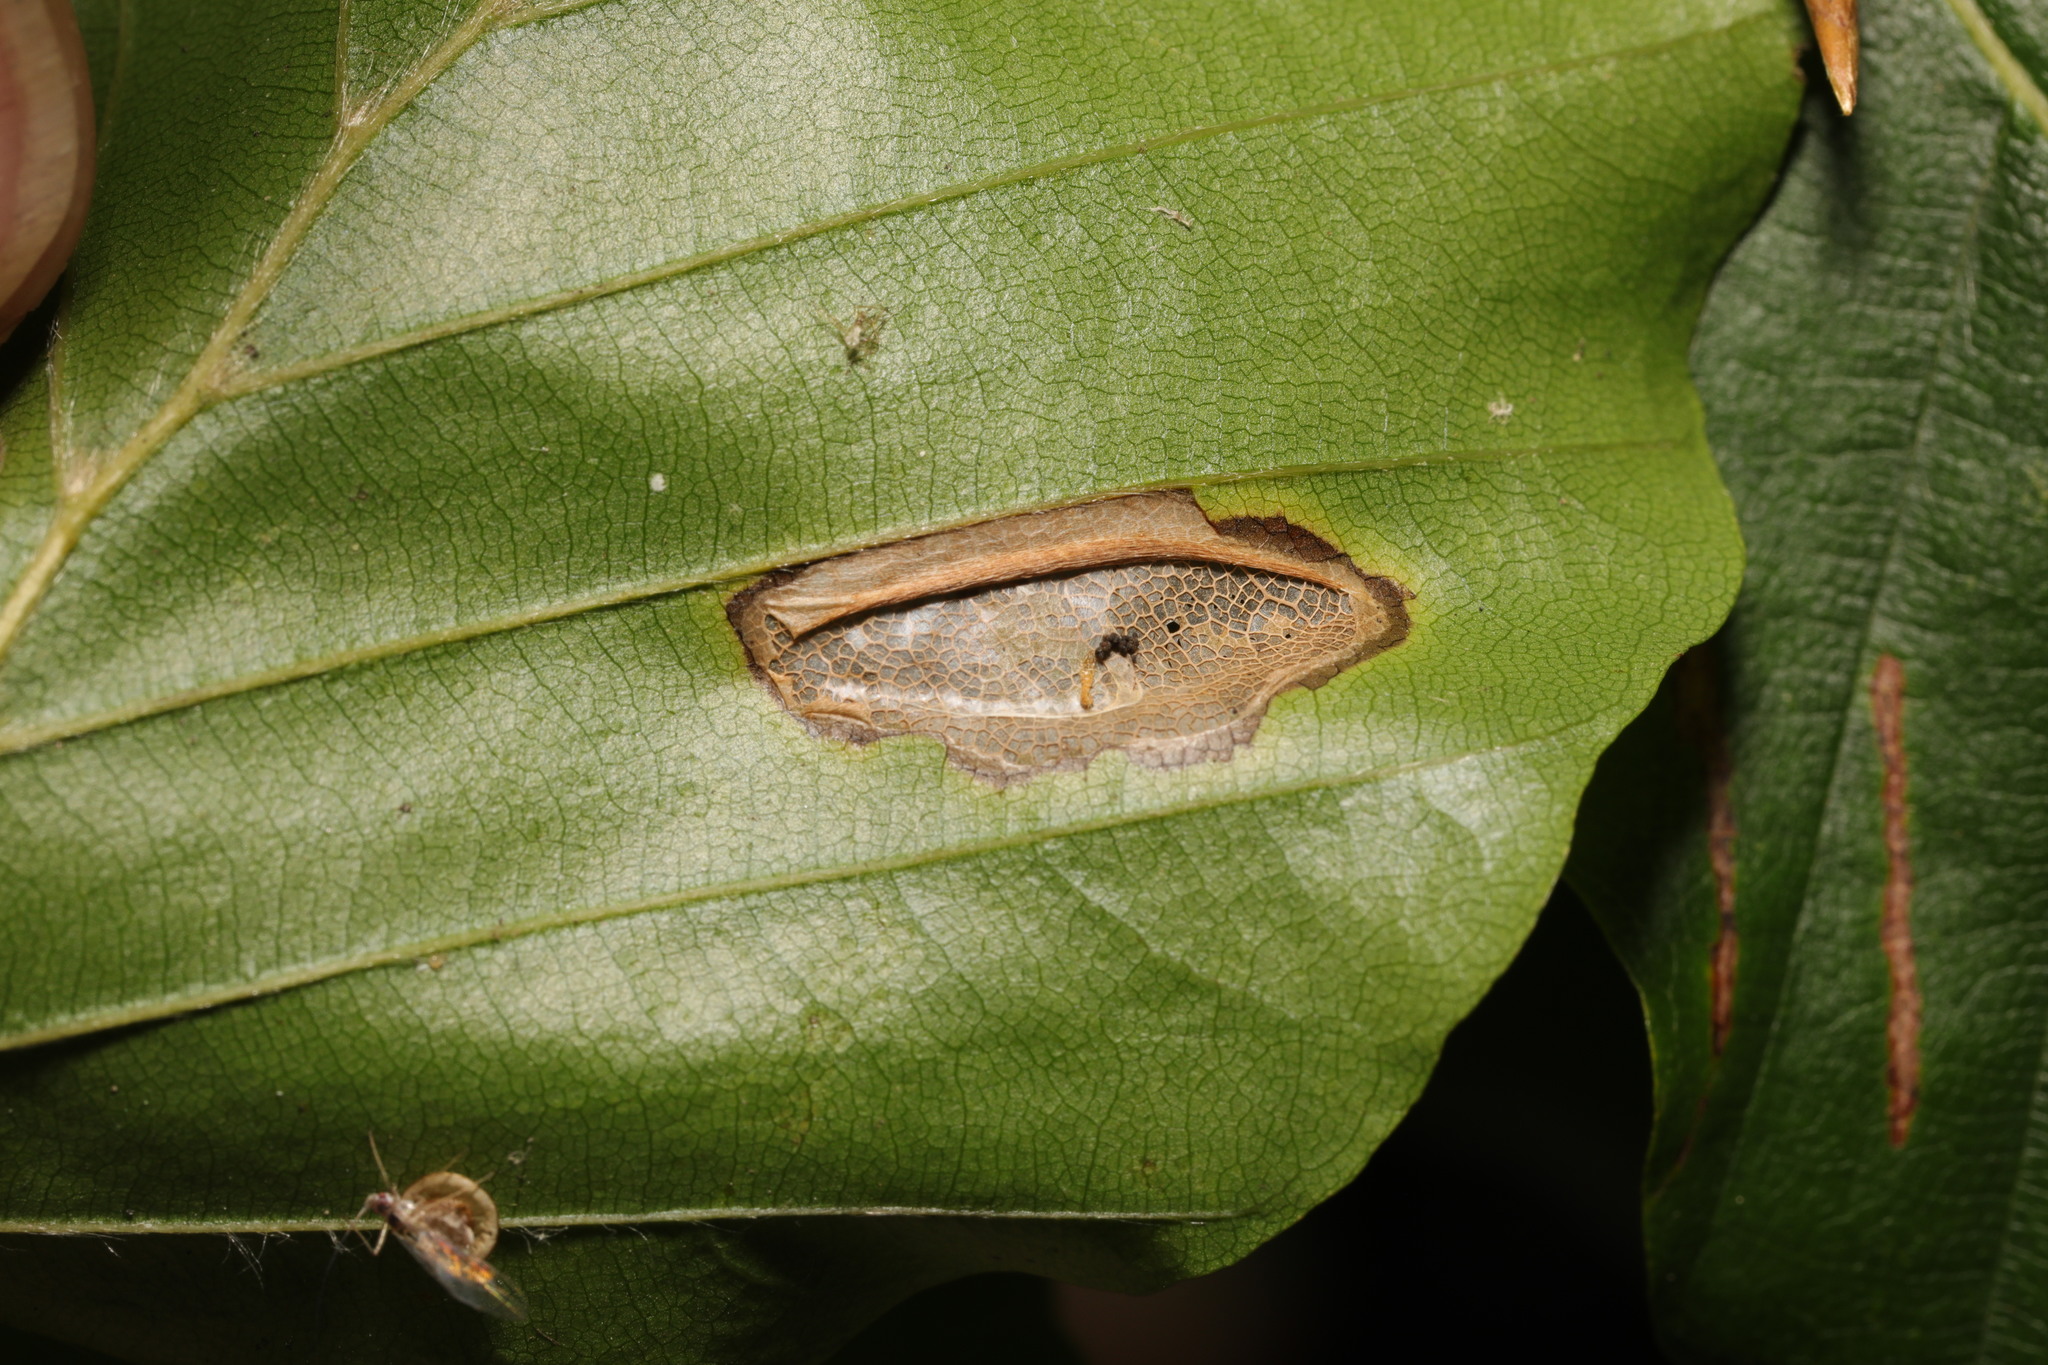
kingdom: Plantae
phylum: Tracheophyta
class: Magnoliopsida
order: Fagales
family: Fagaceae
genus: Fagus
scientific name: Fagus sylvatica
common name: Beech
